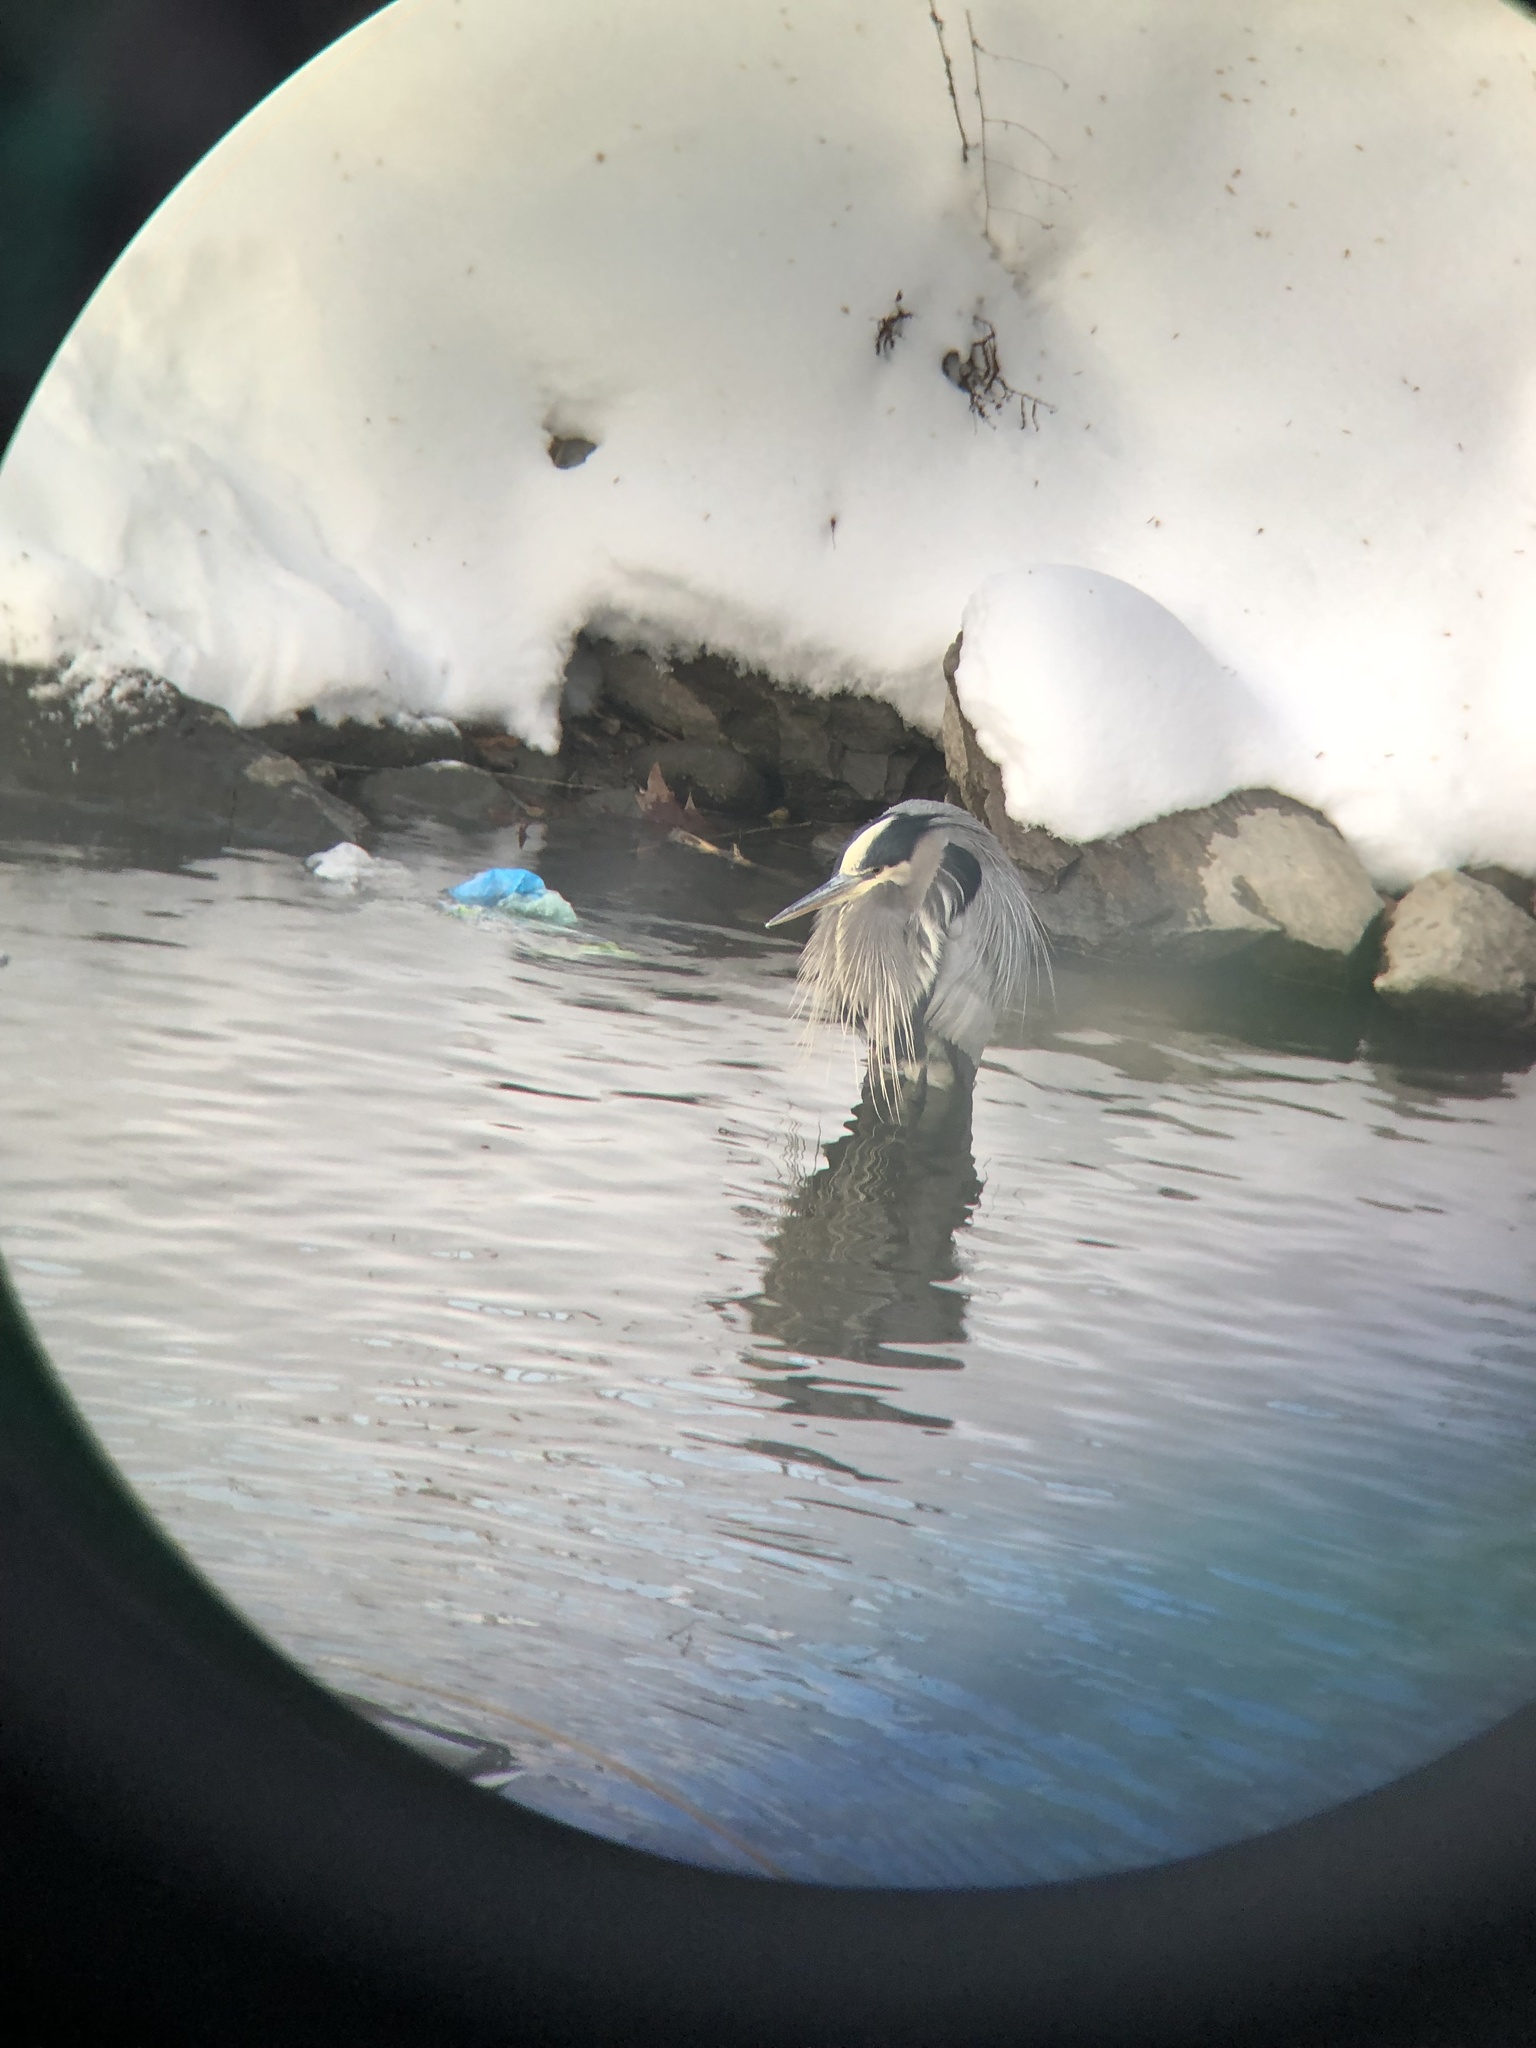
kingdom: Animalia
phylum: Chordata
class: Aves
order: Pelecaniformes
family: Ardeidae
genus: Ardea
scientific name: Ardea herodias
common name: Great blue heron
